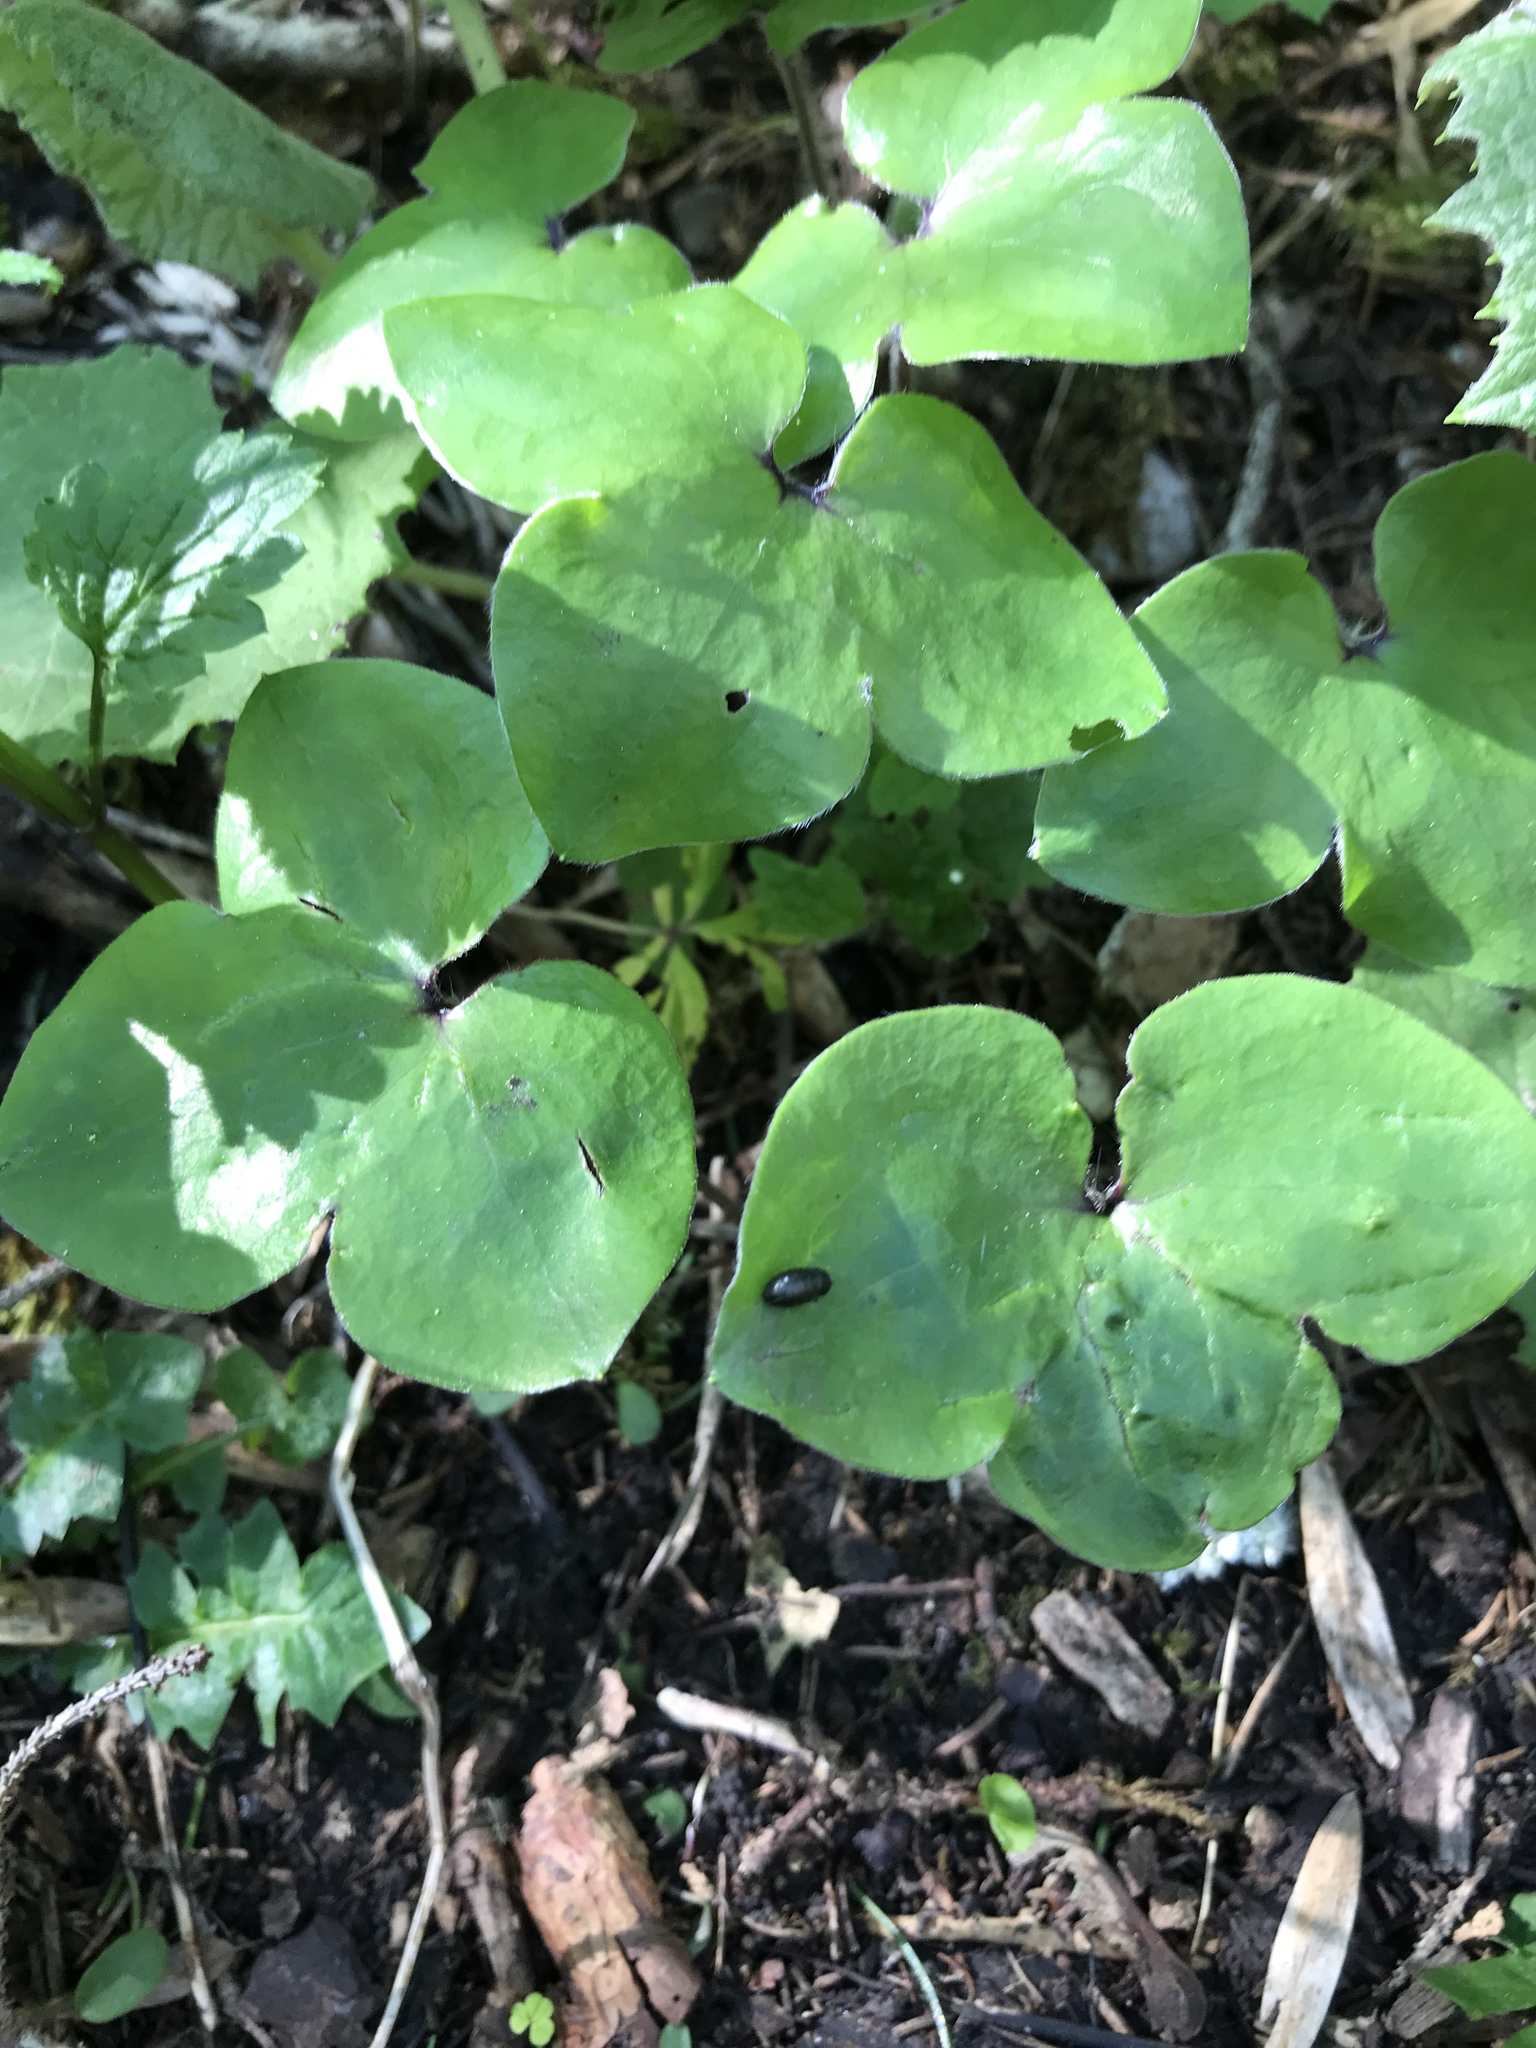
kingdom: Plantae
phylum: Tracheophyta
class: Magnoliopsida
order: Ranunculales
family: Ranunculaceae
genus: Hepatica
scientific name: Hepatica nobilis
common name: Liverleaf
